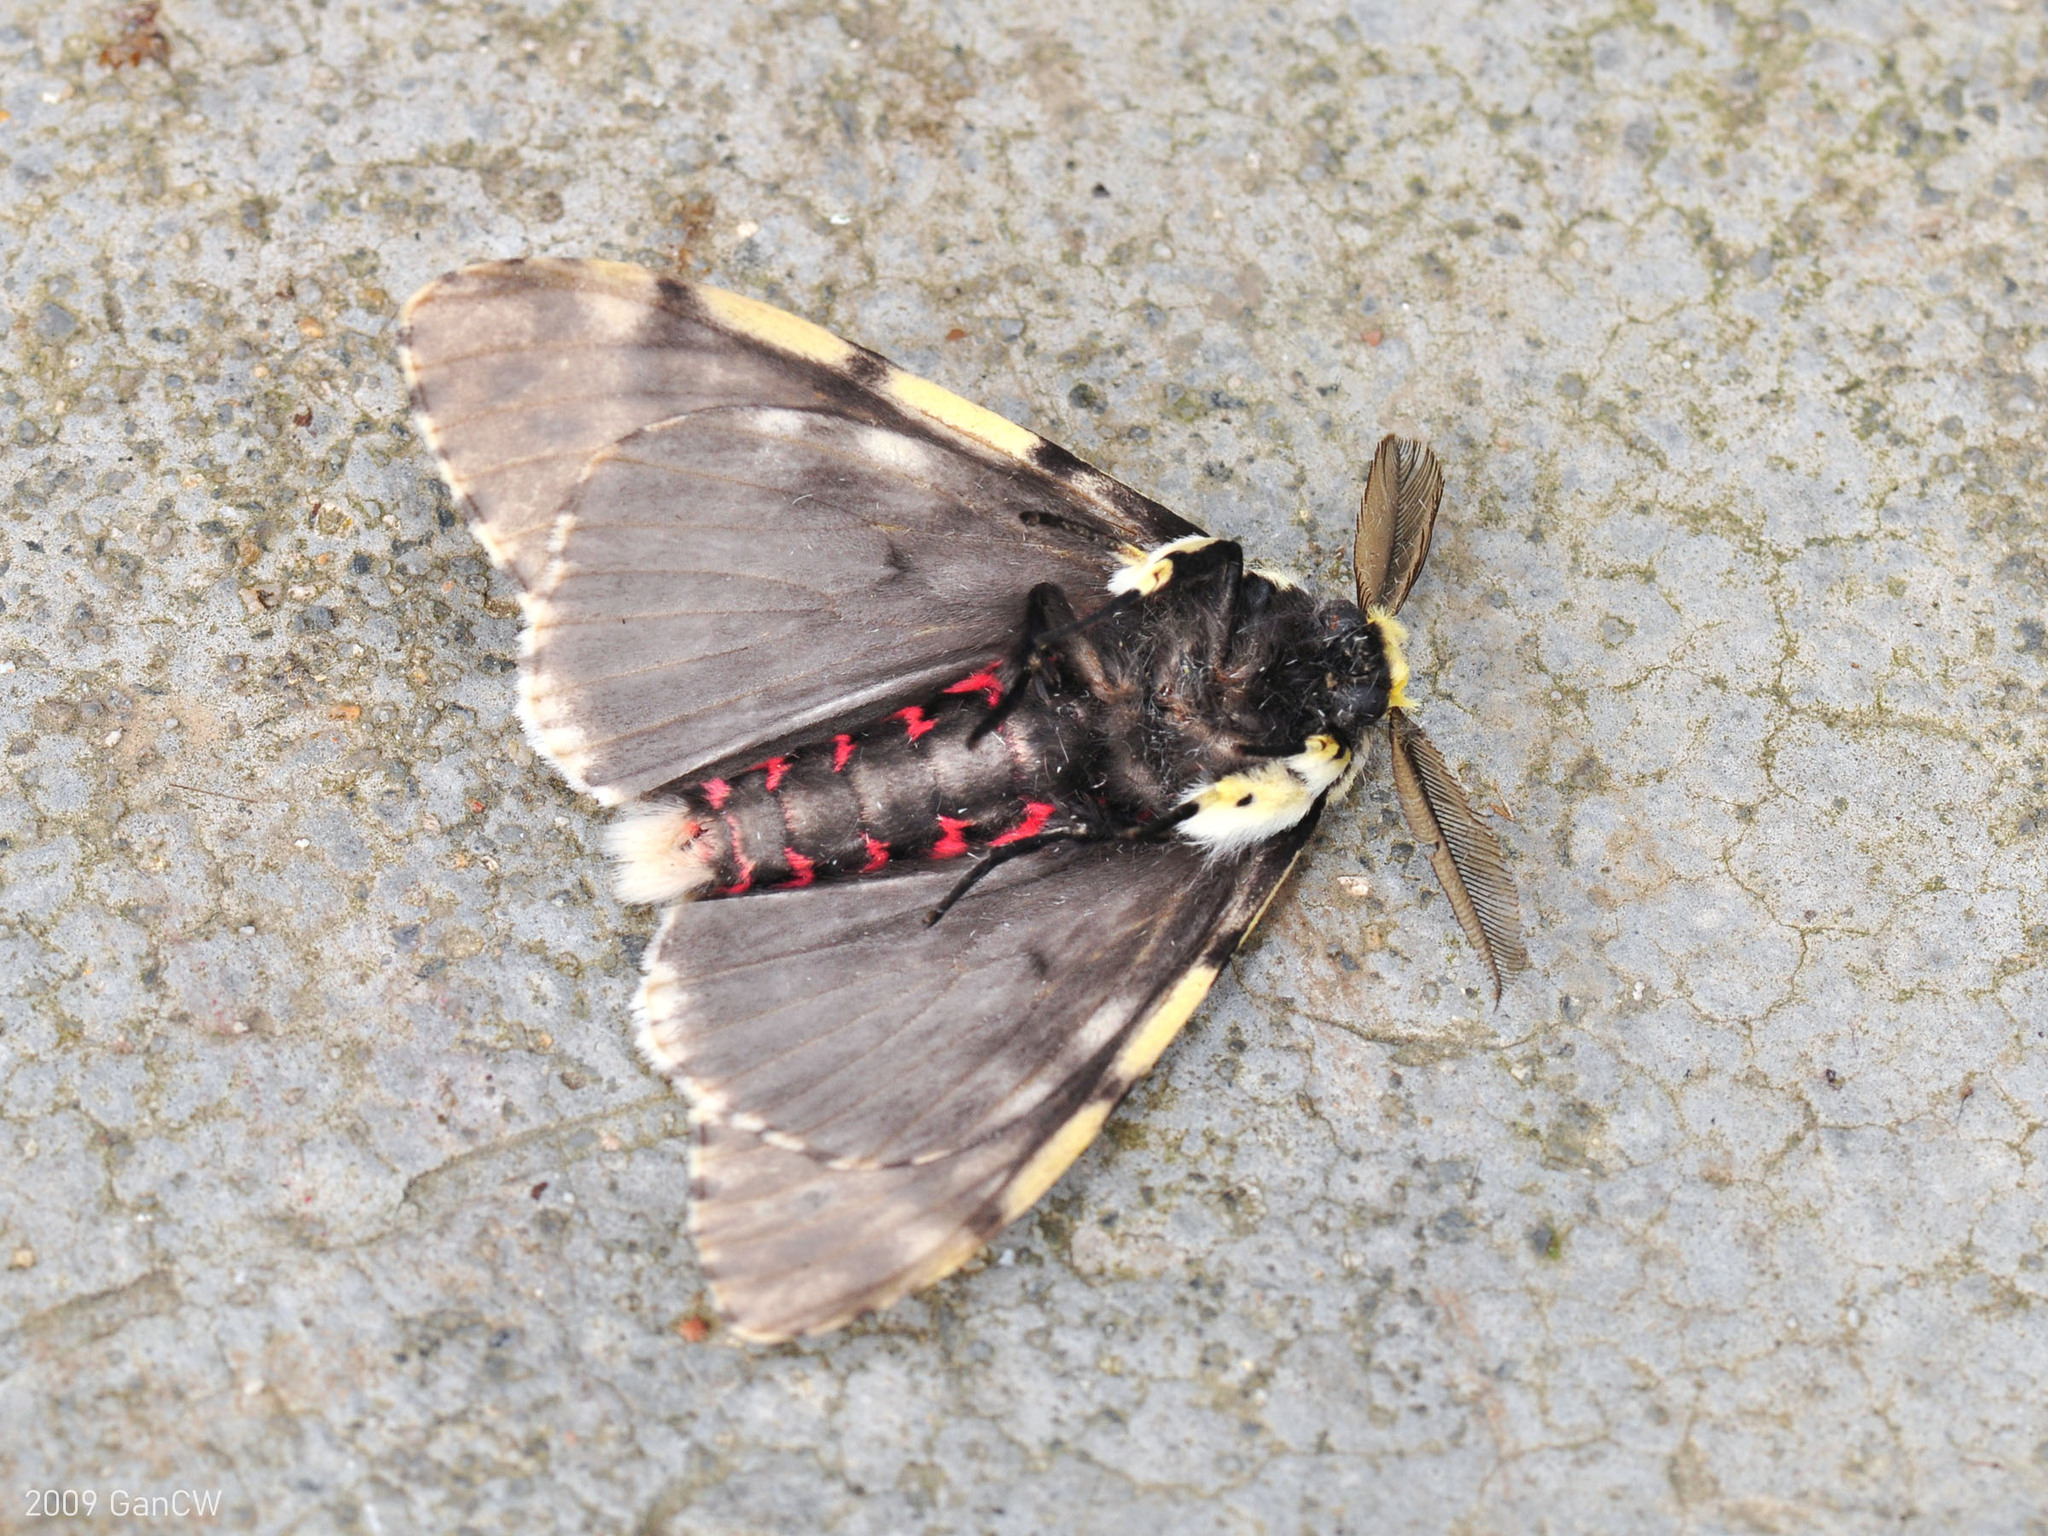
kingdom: Animalia
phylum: Arthropoda
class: Insecta
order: Lepidoptera
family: Erebidae
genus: Lymantria
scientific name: Lymantria narindra
